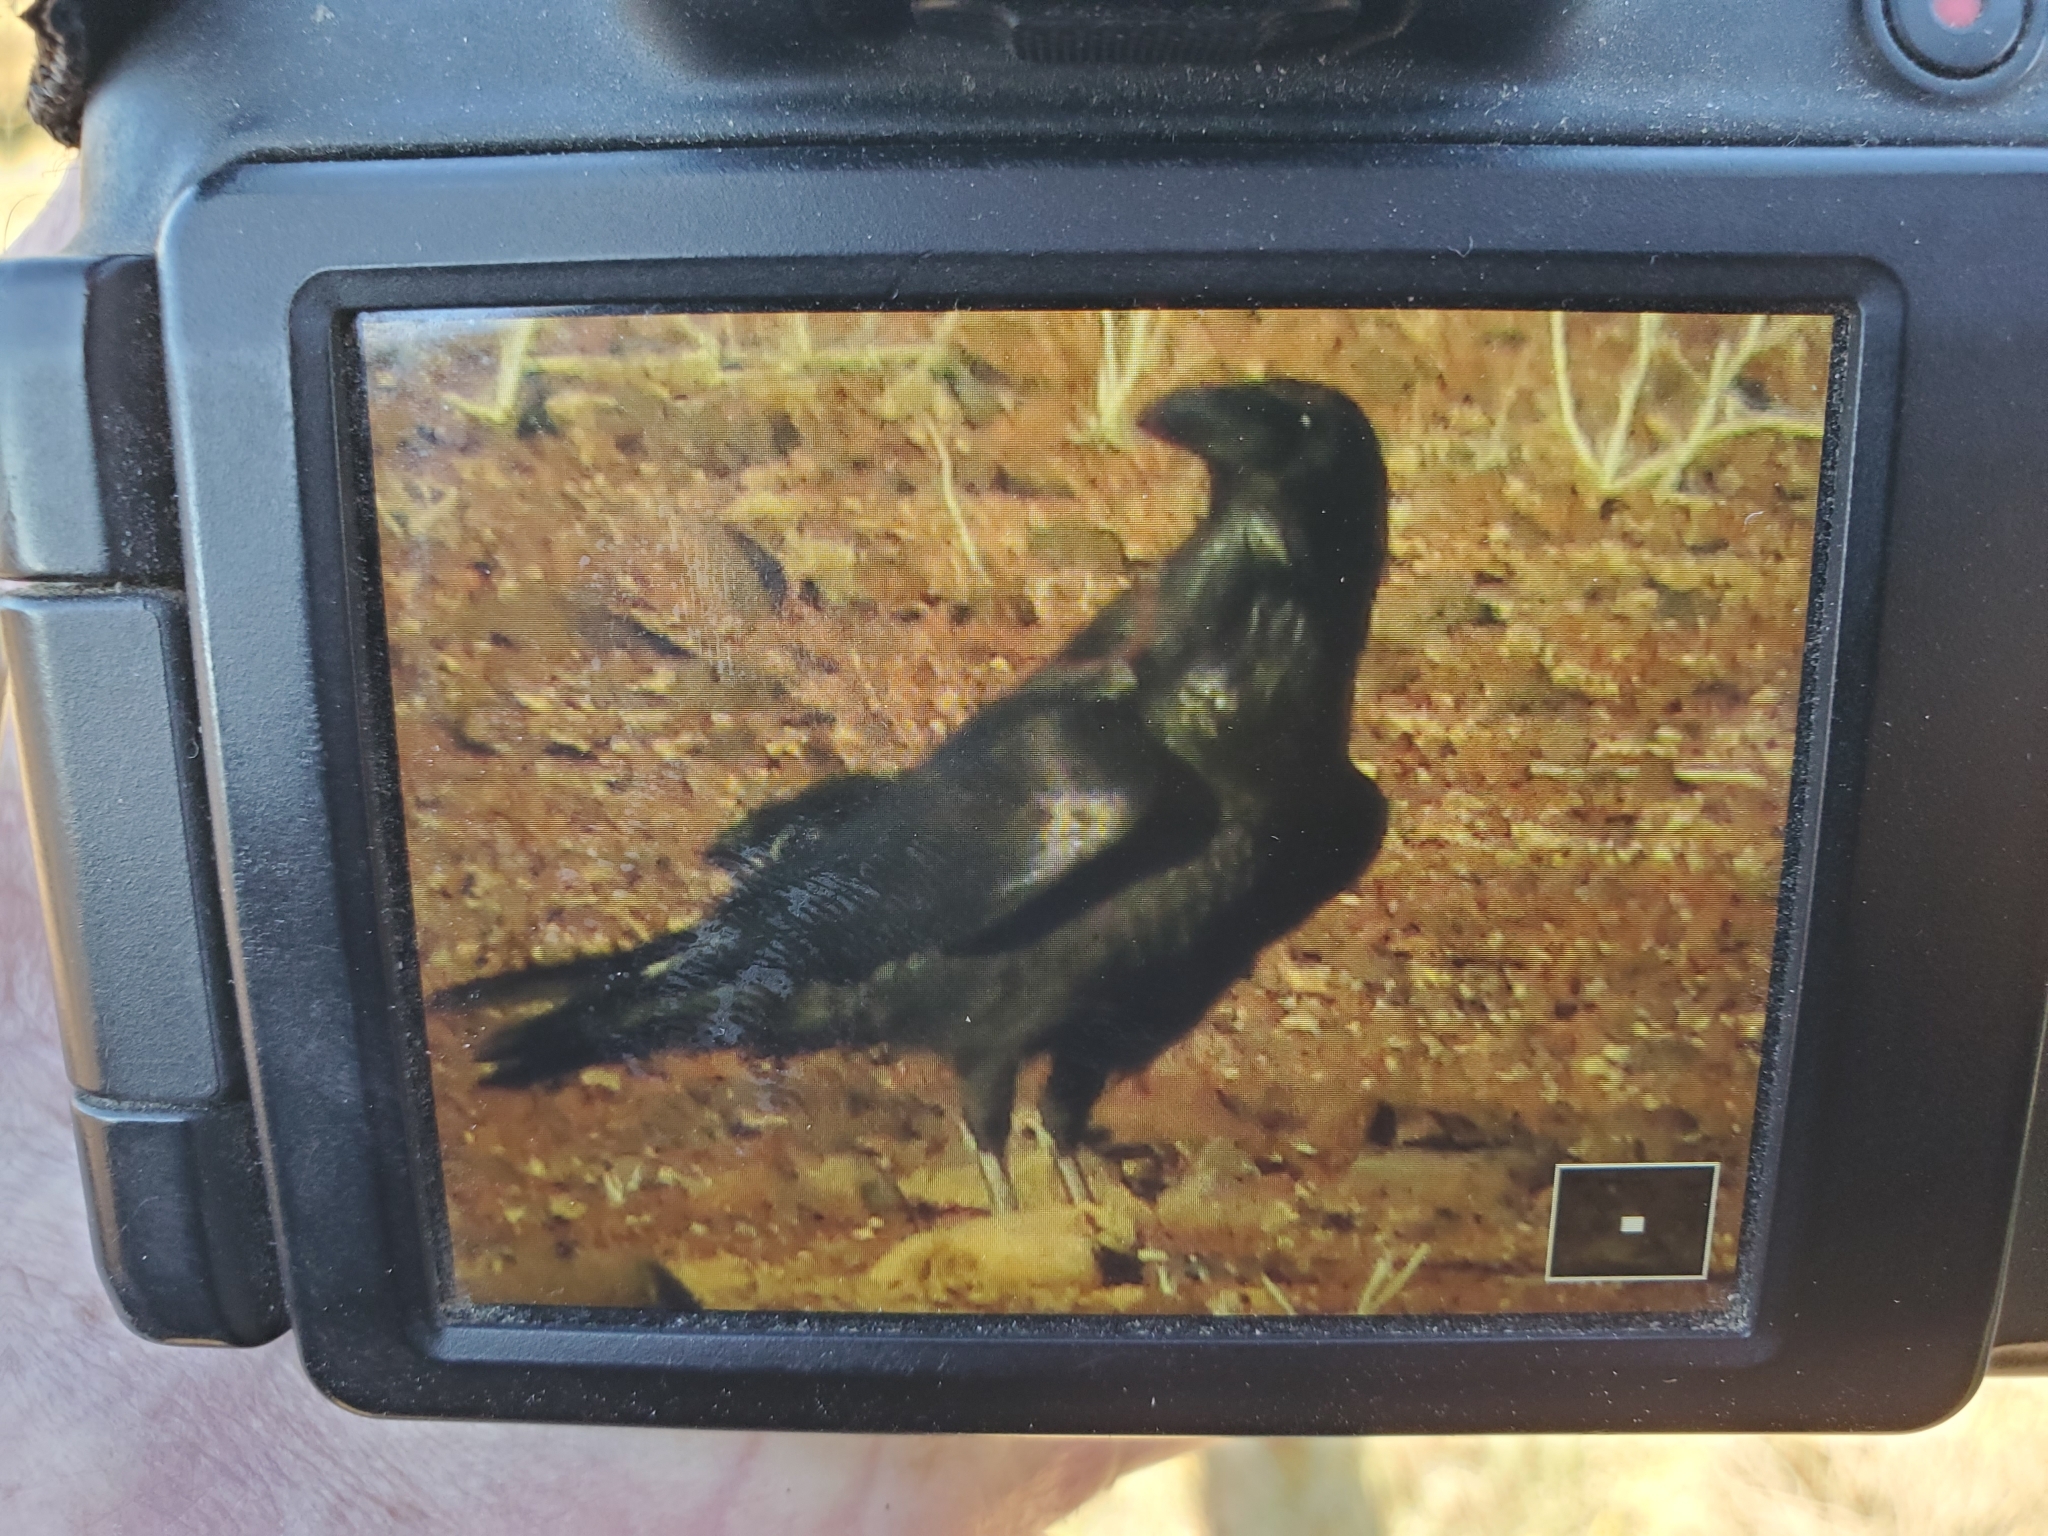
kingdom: Animalia
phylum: Chordata
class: Aves
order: Passeriformes
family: Corvidae
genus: Corvus
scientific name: Corvus corax
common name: Common raven
